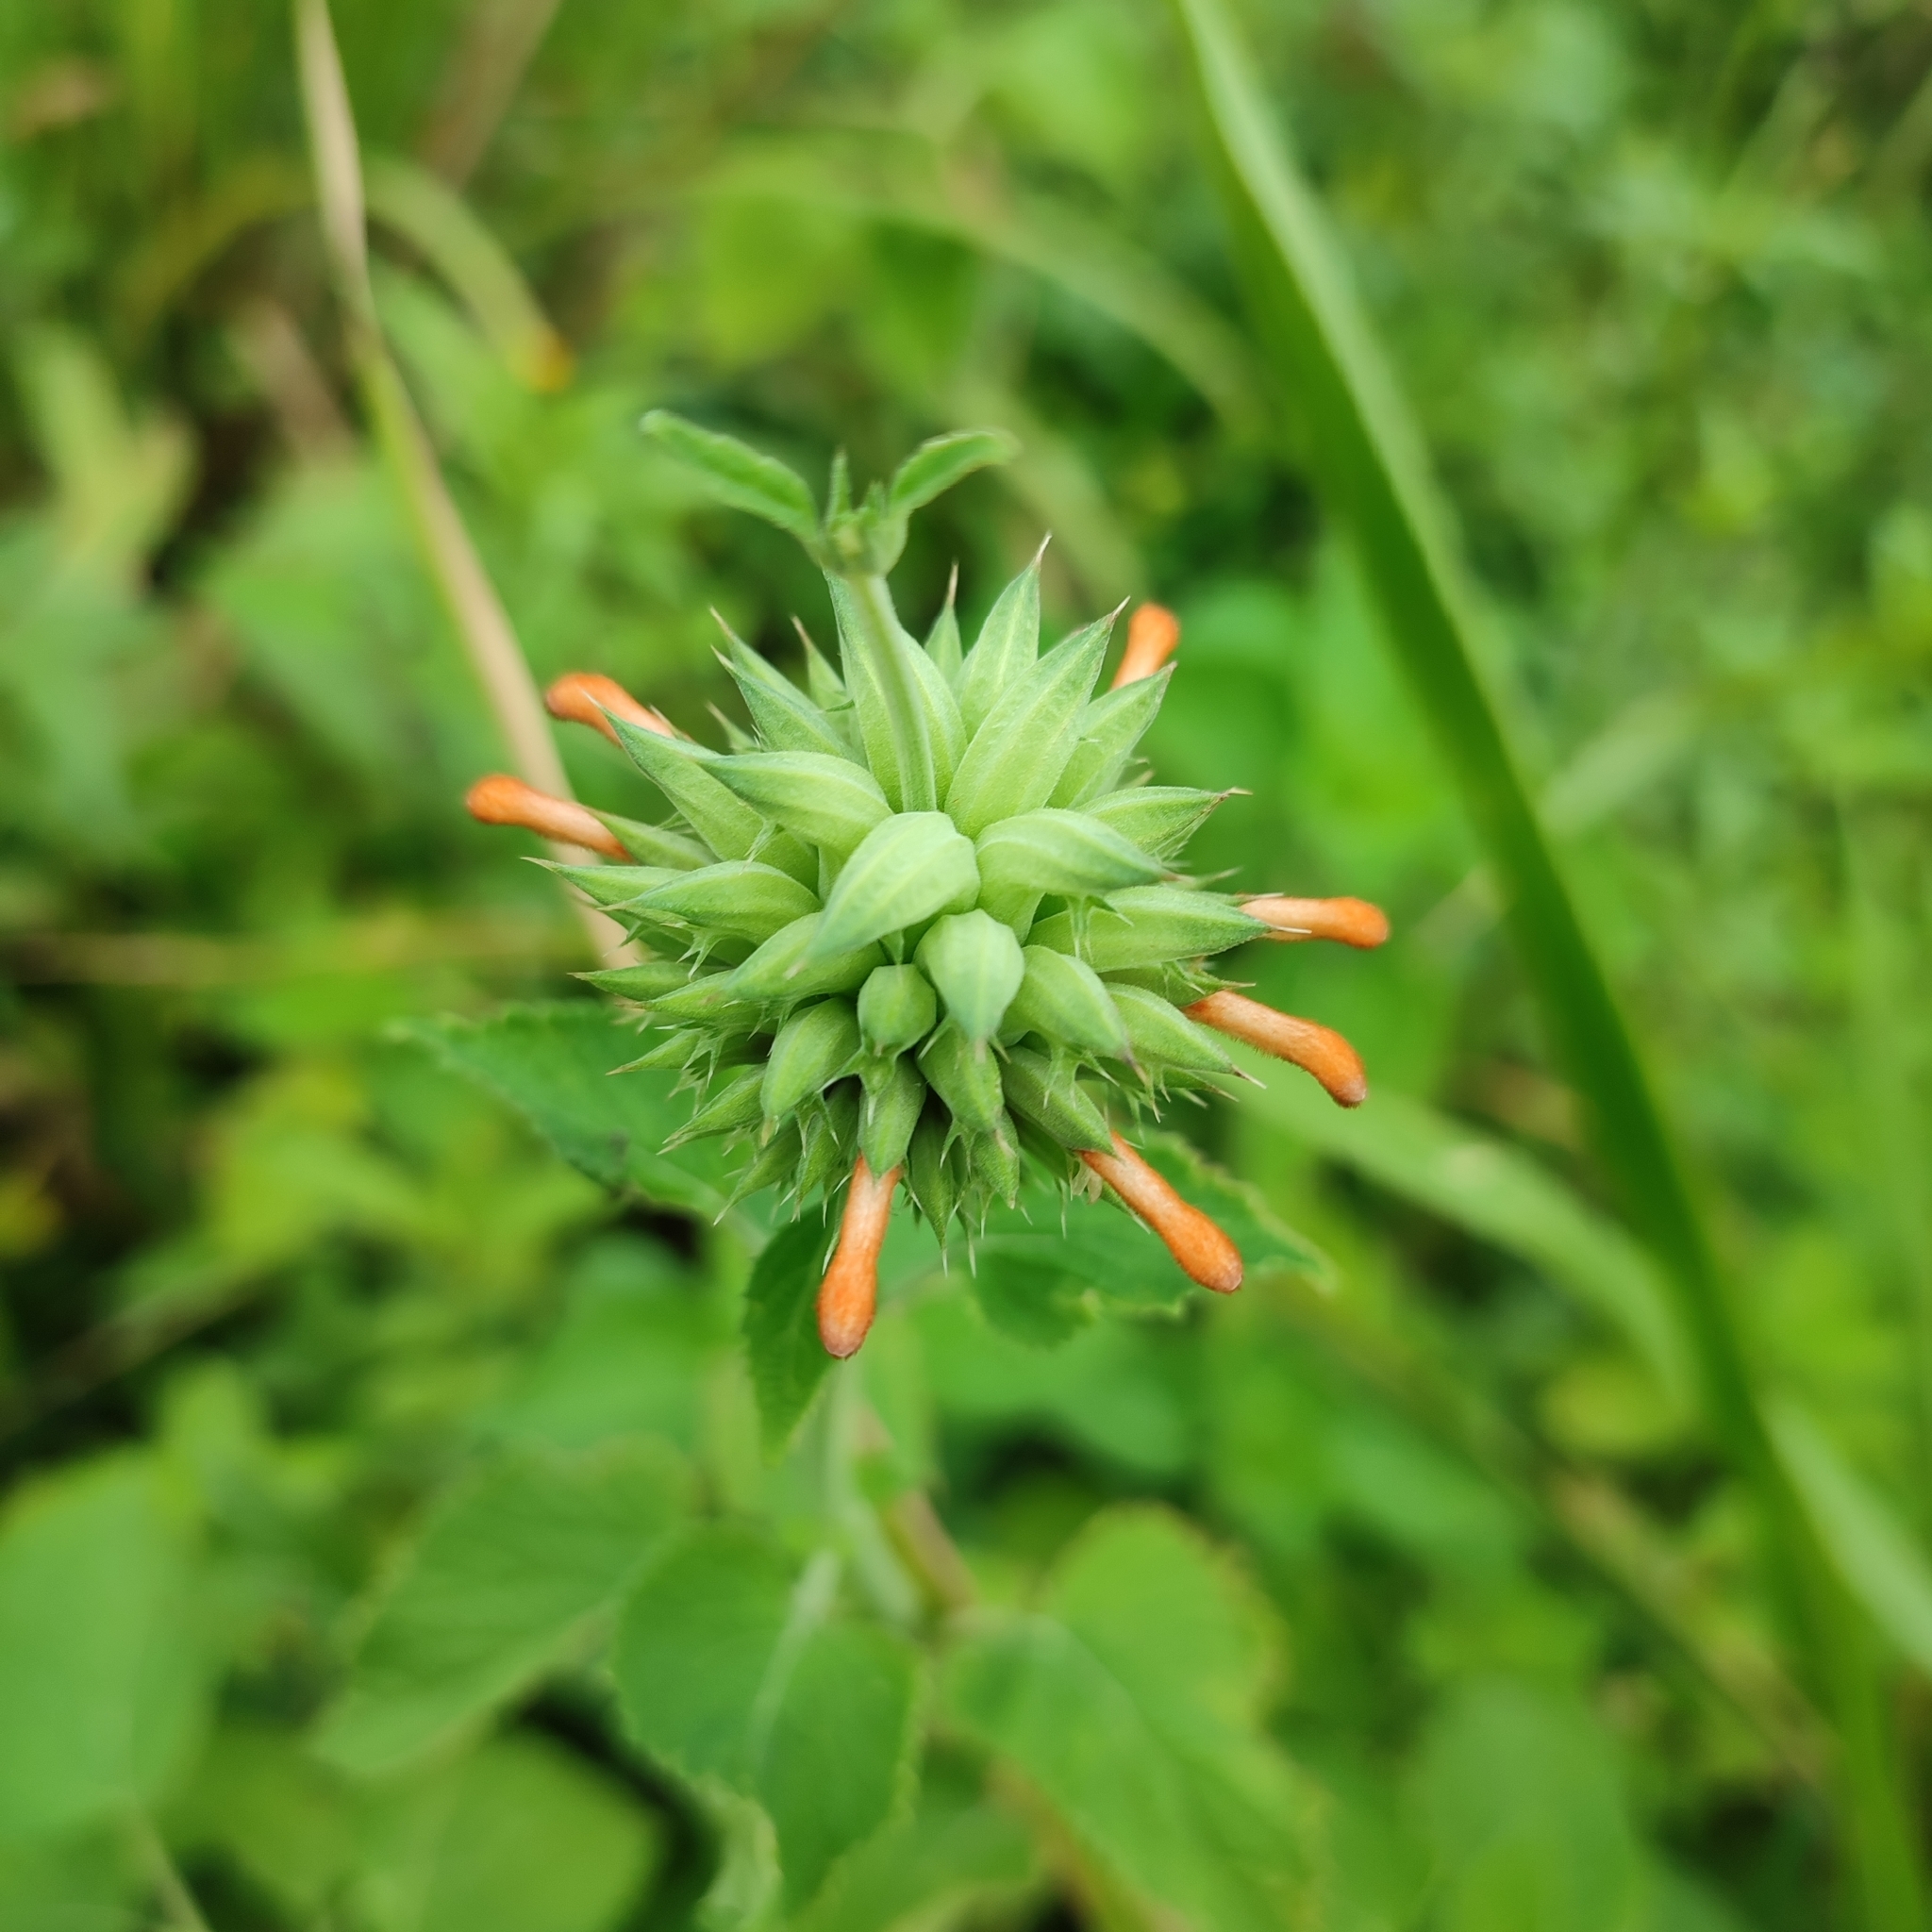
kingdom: Plantae
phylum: Tracheophyta
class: Magnoliopsida
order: Lamiales
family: Lamiaceae
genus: Leonotis
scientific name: Leonotis nepetifolia
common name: Christmas candlestick
